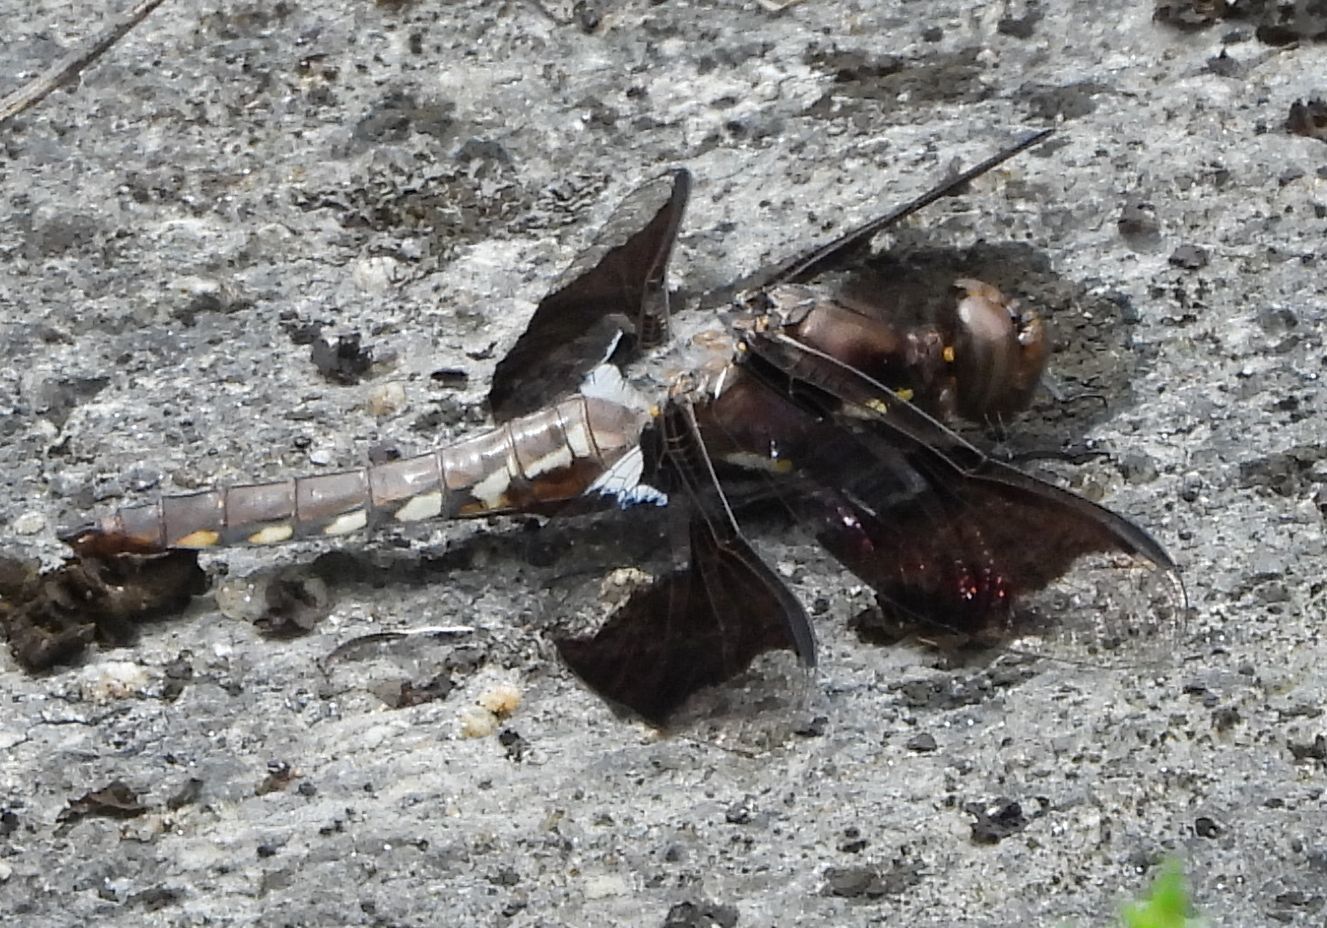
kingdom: Animalia
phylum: Arthropoda
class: Insecta
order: Odonata
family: Libellulidae
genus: Plathemis
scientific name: Plathemis lydia
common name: Common whitetail
